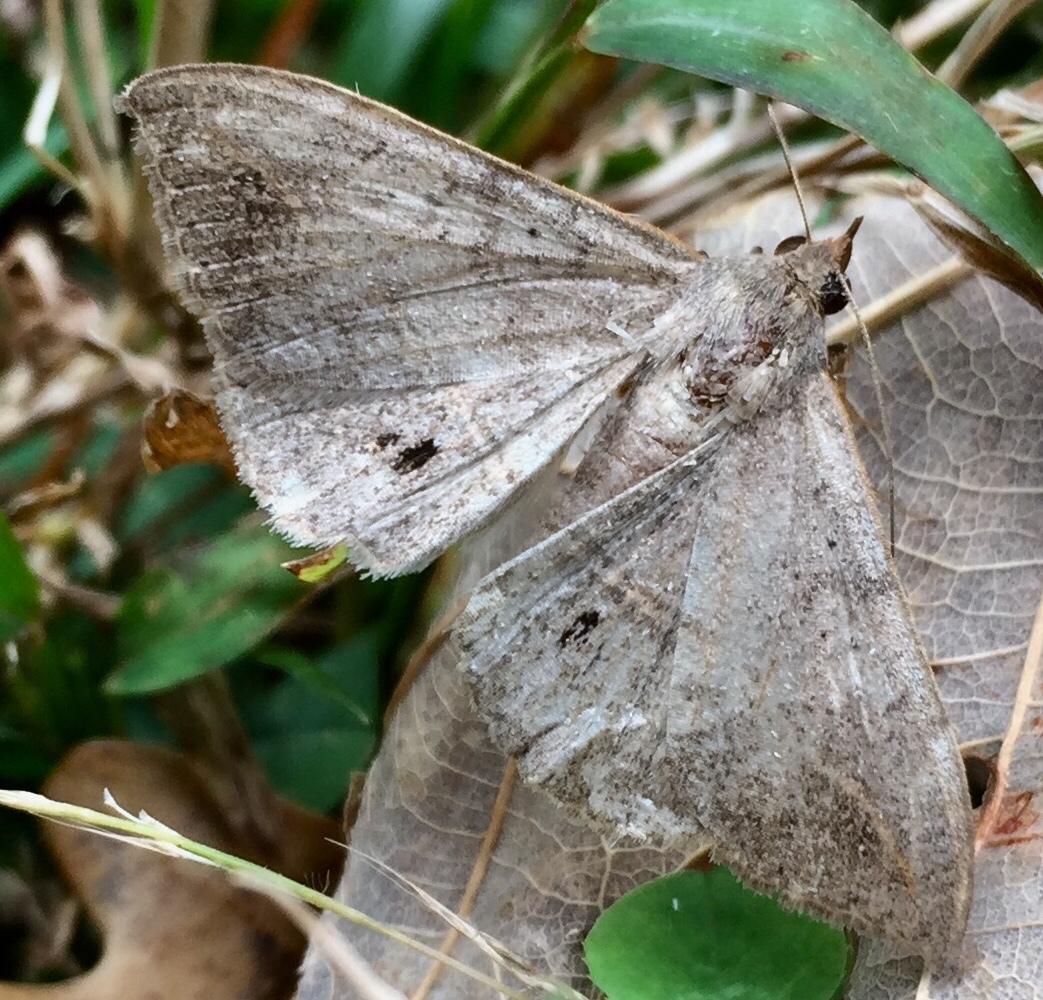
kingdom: Animalia
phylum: Arthropoda
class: Insecta
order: Lepidoptera
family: Erebidae
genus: Anticarsia
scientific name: Anticarsia gemmatalis
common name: Cutworm moth
